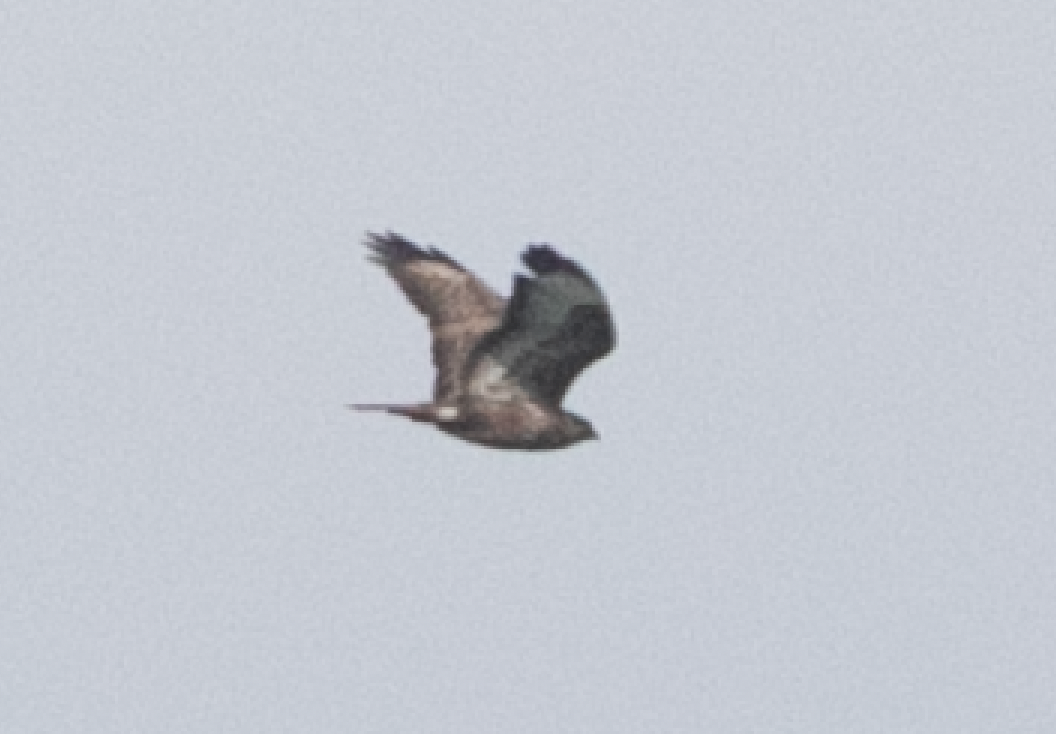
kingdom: Animalia
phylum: Chordata
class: Aves
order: Accipitriformes
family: Accipitridae
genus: Buteo
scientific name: Buteo buteo
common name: Common buzzard
